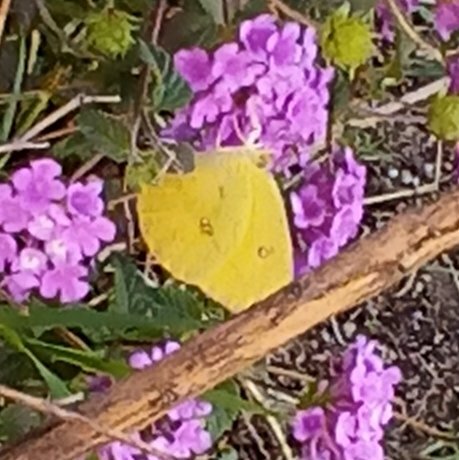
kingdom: Animalia
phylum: Arthropoda
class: Insecta
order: Lepidoptera
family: Pieridae
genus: Phoebis
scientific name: Phoebis agarithe
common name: Large orange sulphur
